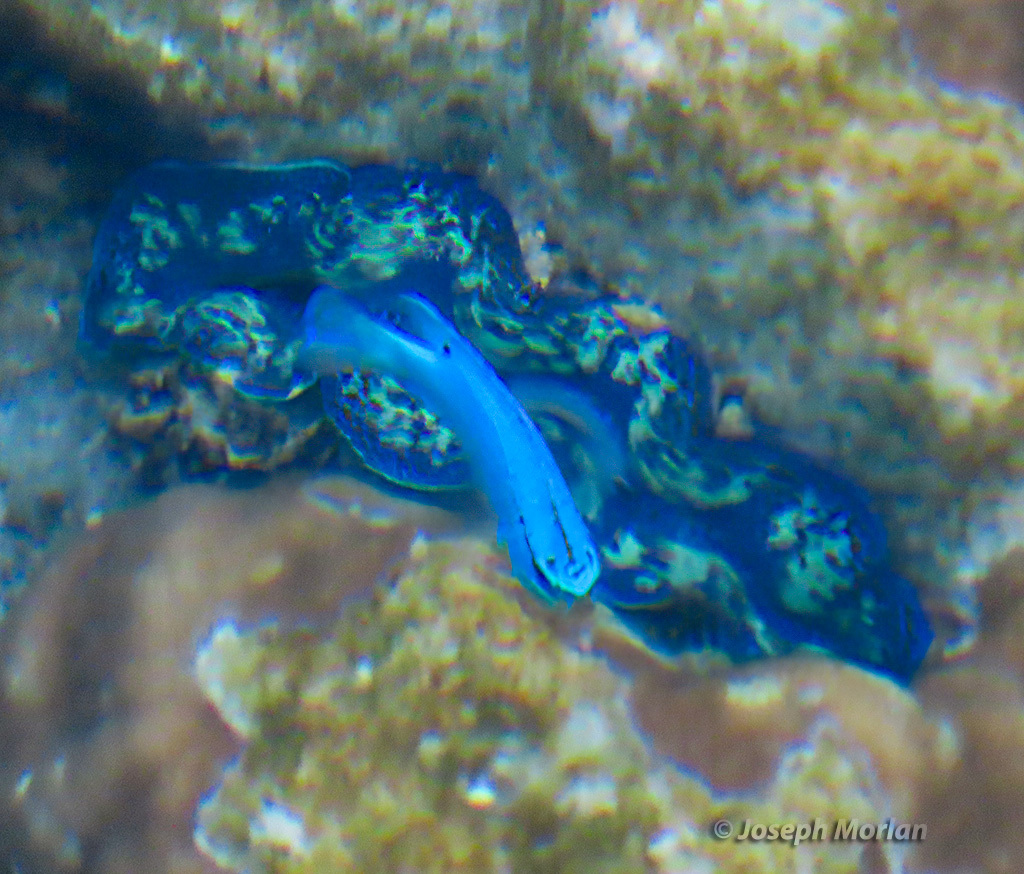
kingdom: Animalia
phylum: Chordata
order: Perciformes
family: Pomacentridae
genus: Chrysiptera
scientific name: Chrysiptera cyanea
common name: Blue devil
